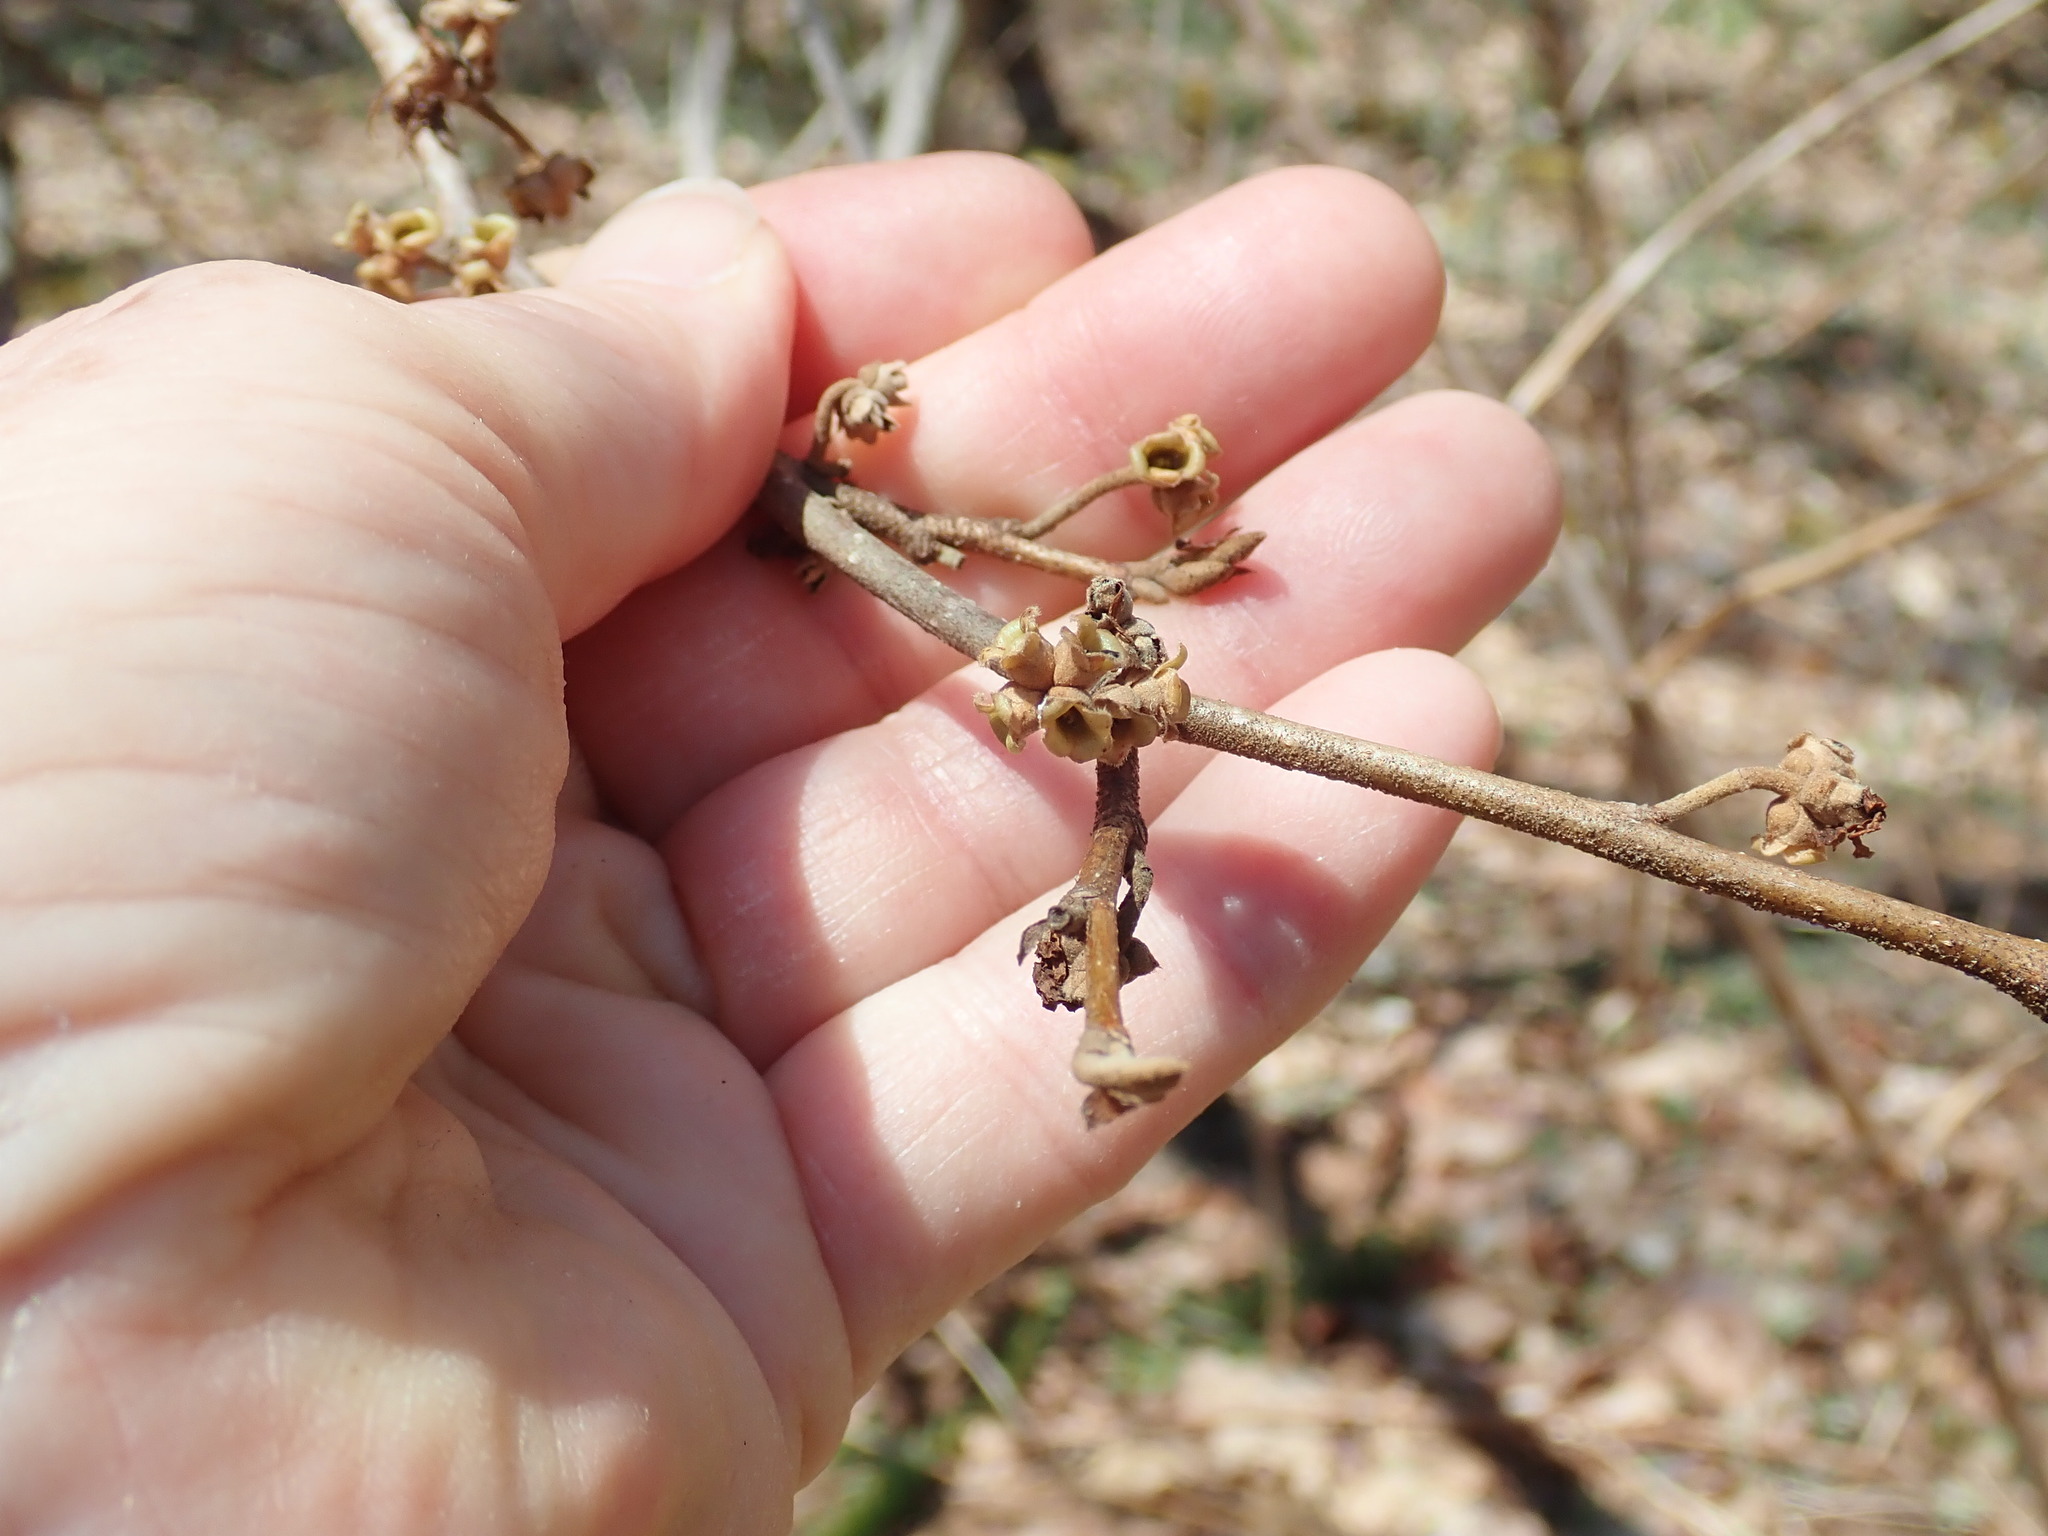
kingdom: Plantae
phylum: Tracheophyta
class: Magnoliopsida
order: Saxifragales
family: Hamamelidaceae
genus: Hamamelis
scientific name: Hamamelis virginiana
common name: Witch-hazel
